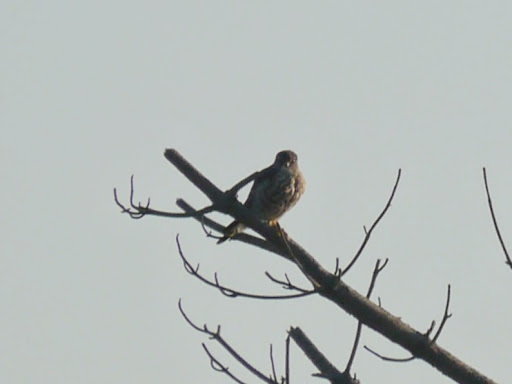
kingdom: Animalia
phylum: Chordata
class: Aves
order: Falconiformes
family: Falconidae
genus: Falco
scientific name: Falco columbarius
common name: Merlin
